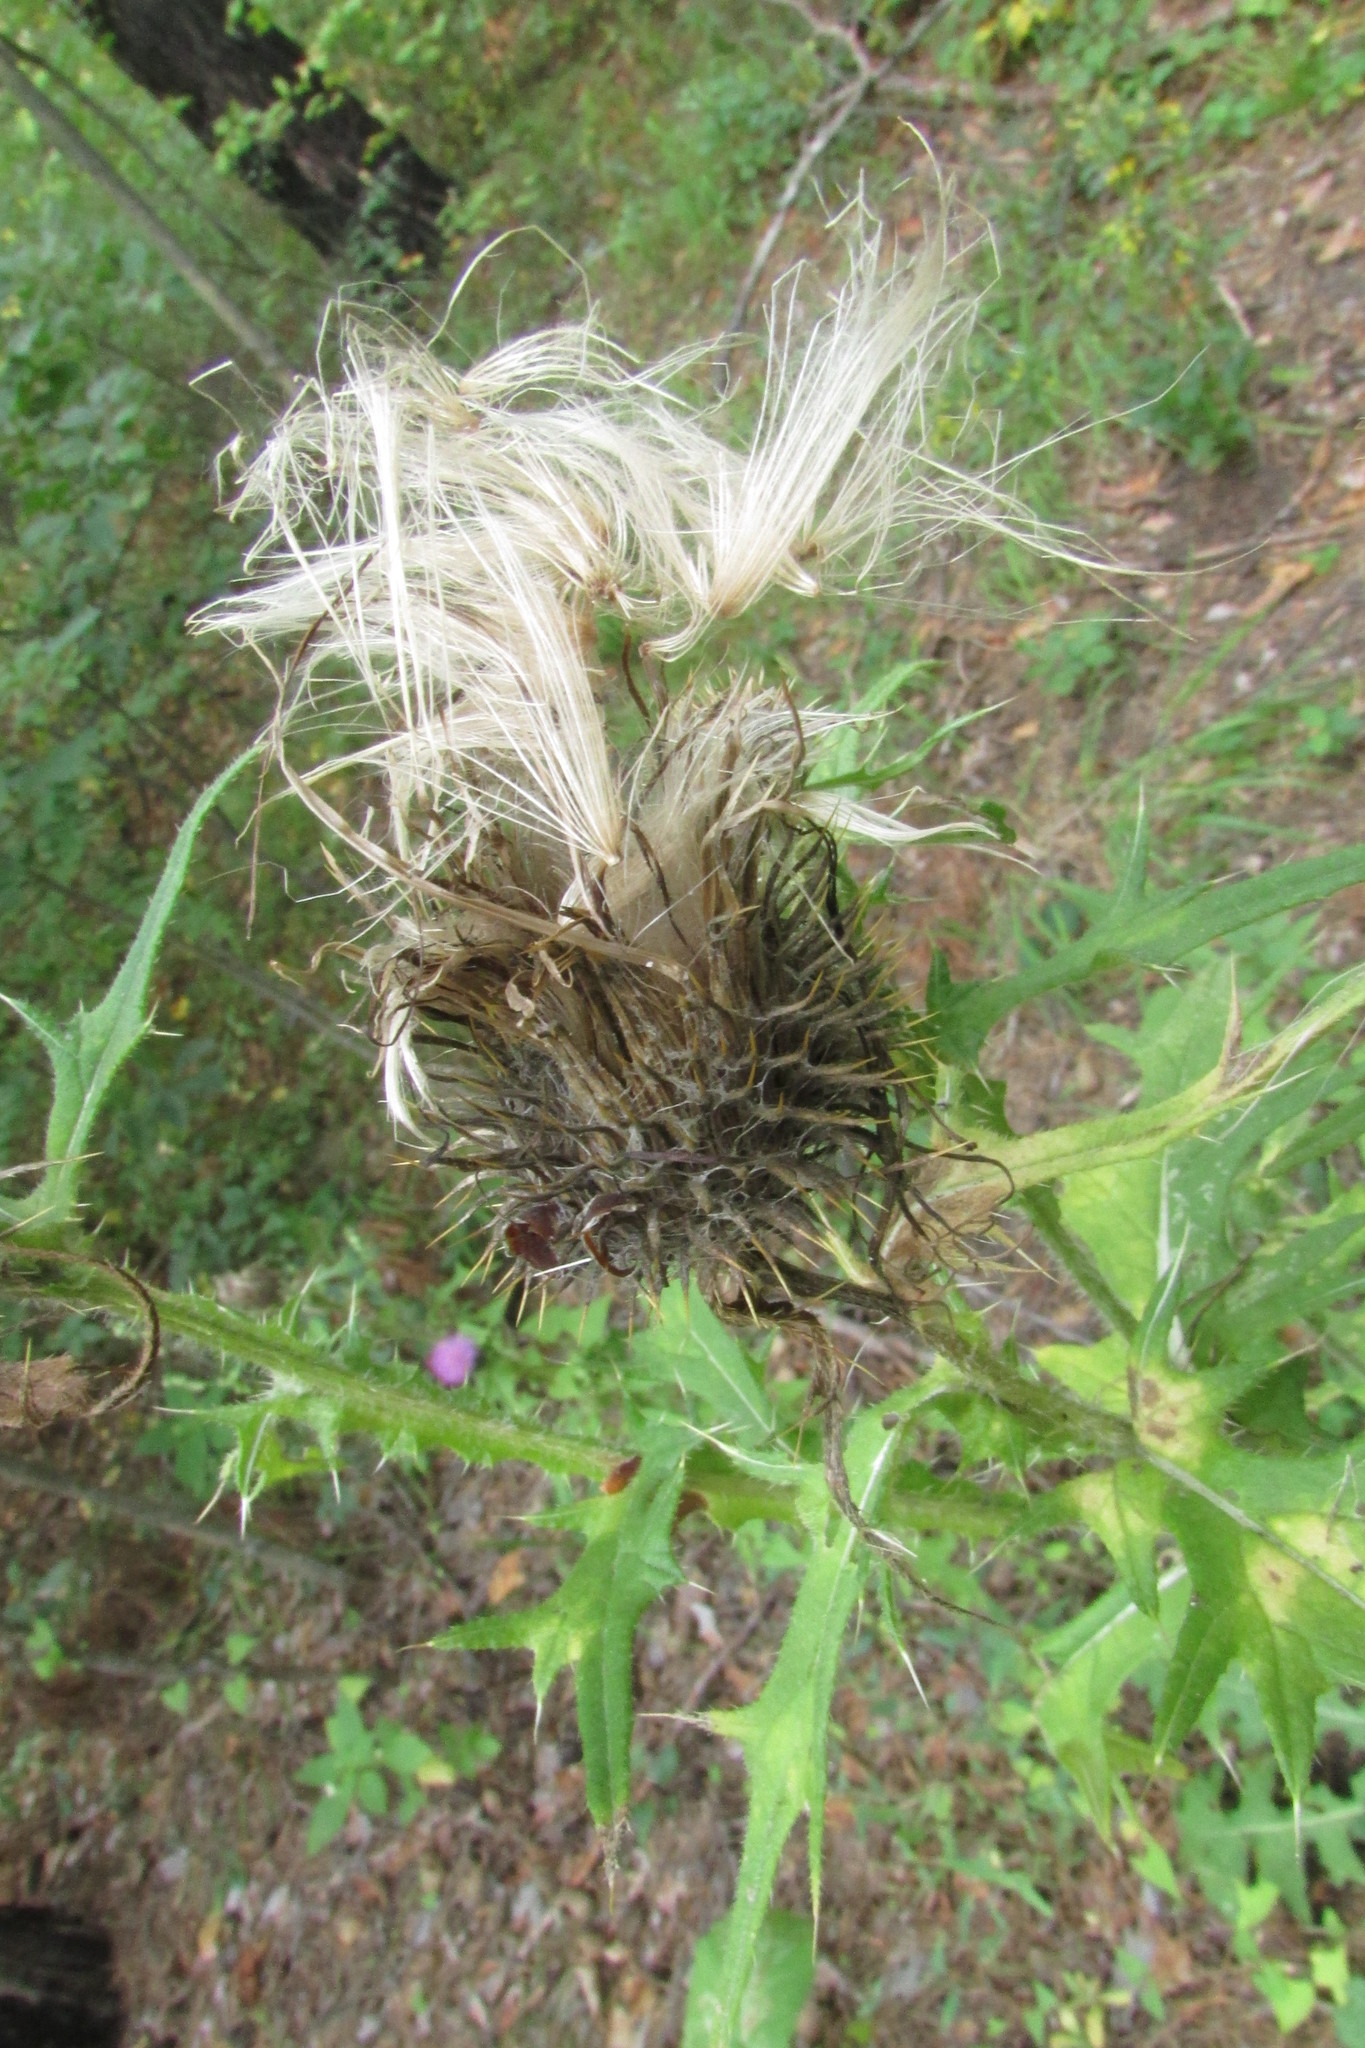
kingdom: Plantae
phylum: Tracheophyta
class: Magnoliopsida
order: Asterales
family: Asteraceae
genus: Cirsium
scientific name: Cirsium vulgare
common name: Bull thistle
